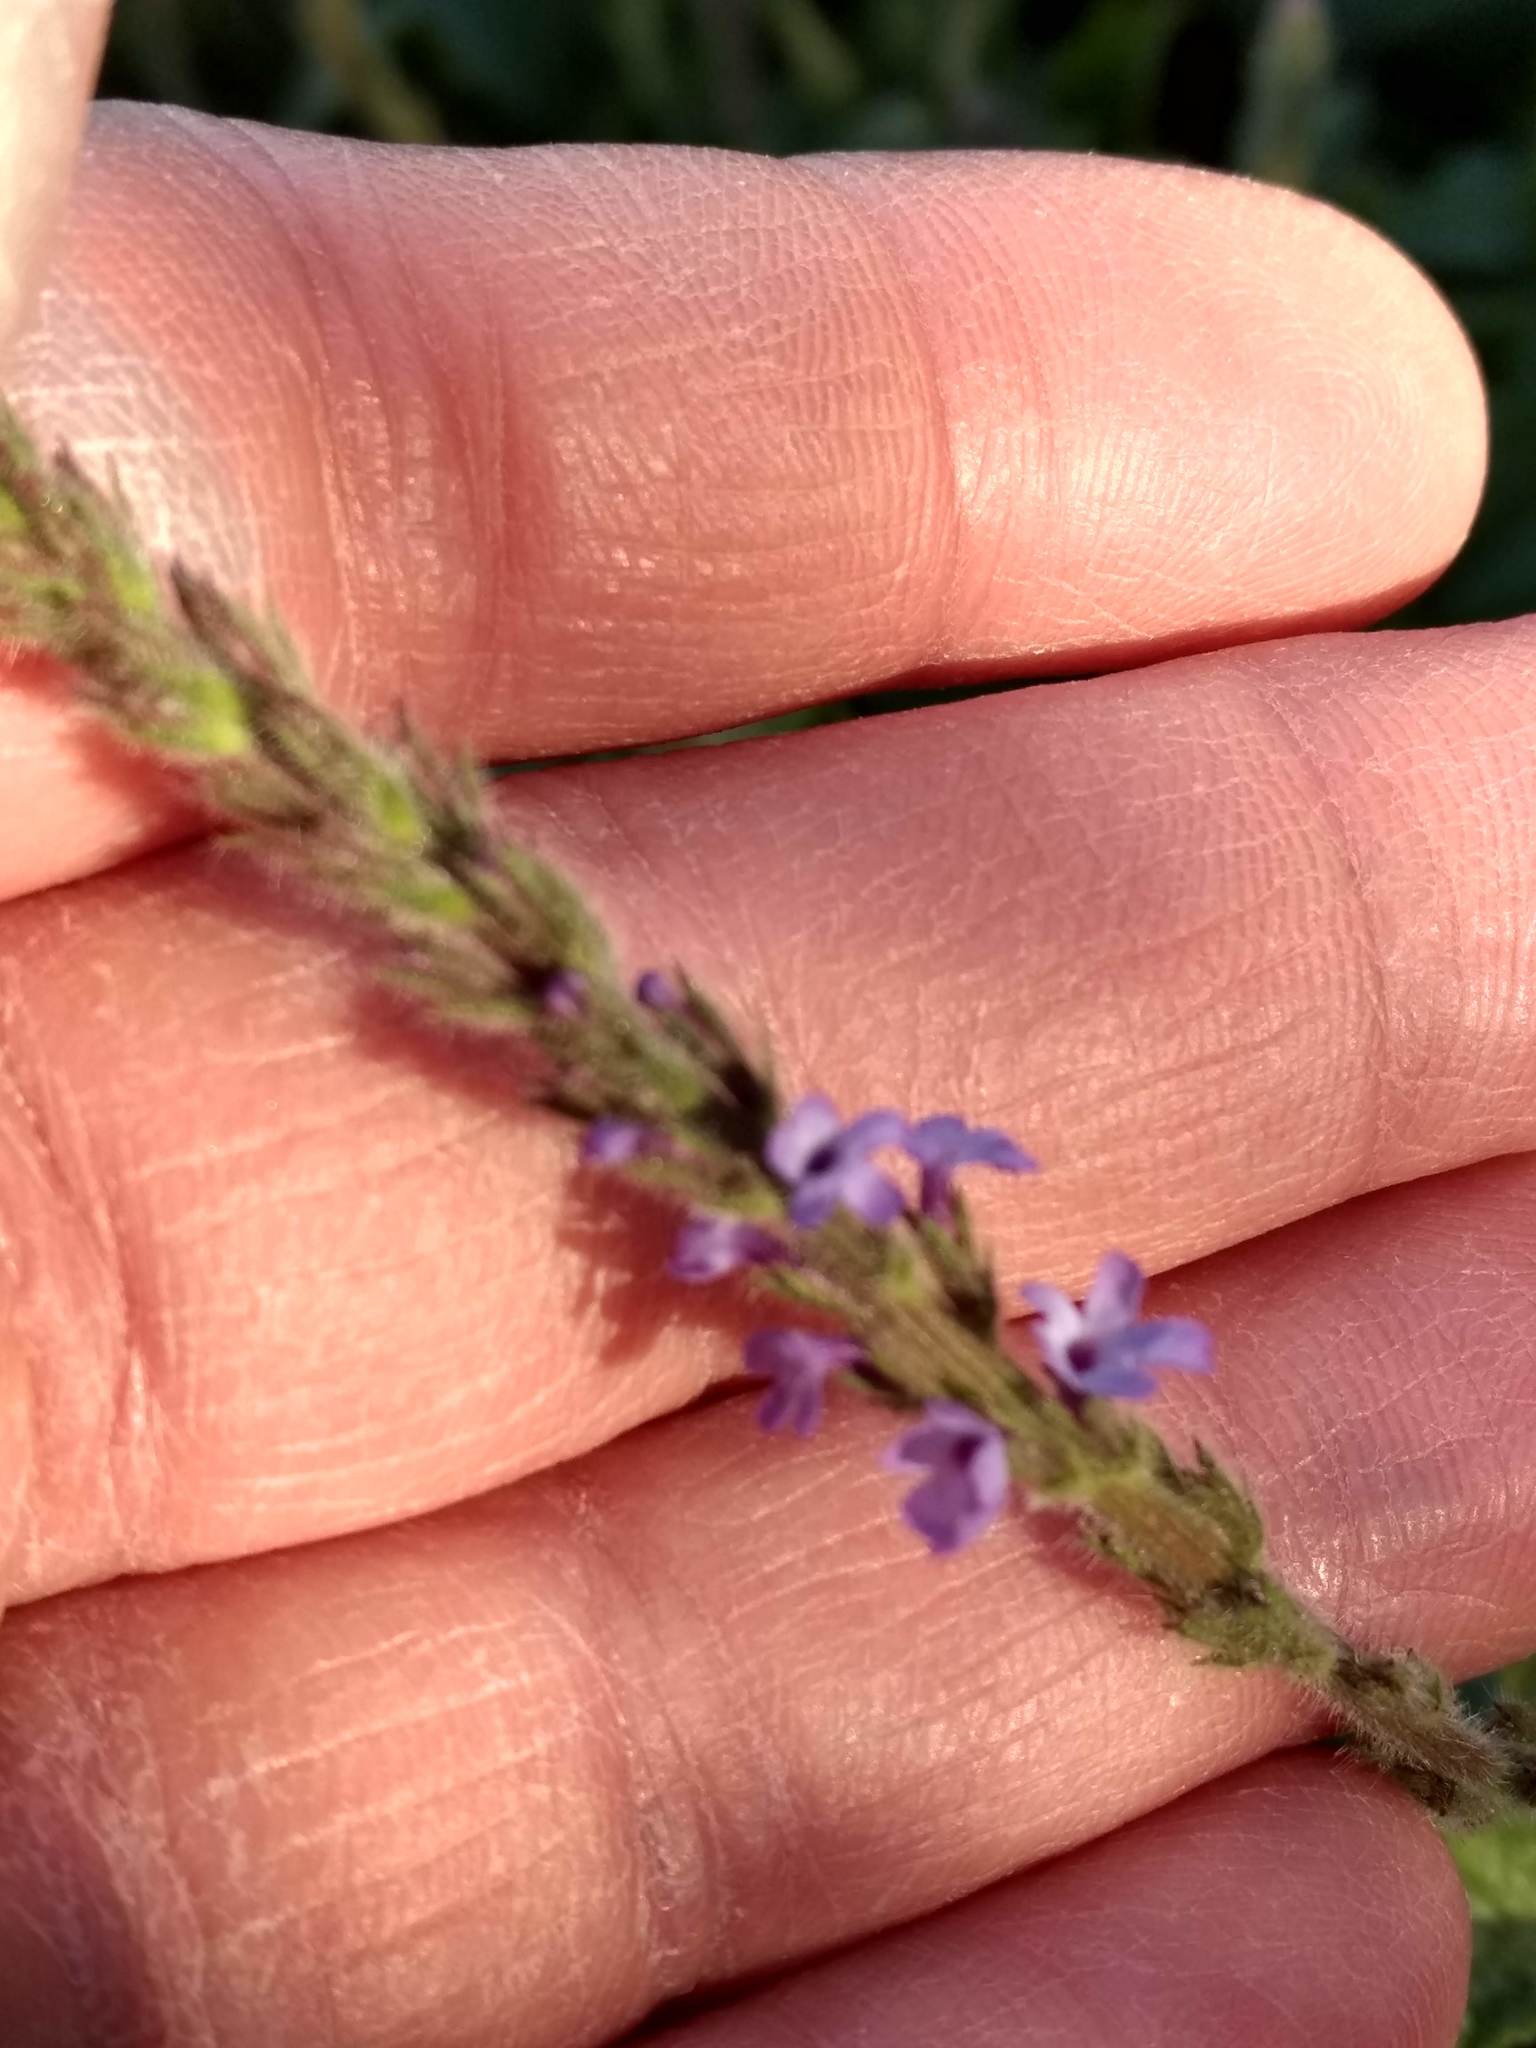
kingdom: Plantae
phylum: Tracheophyta
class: Magnoliopsida
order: Lamiales
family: Verbenaceae
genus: Verbena
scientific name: Verbena lasiostachys
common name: Vervain
